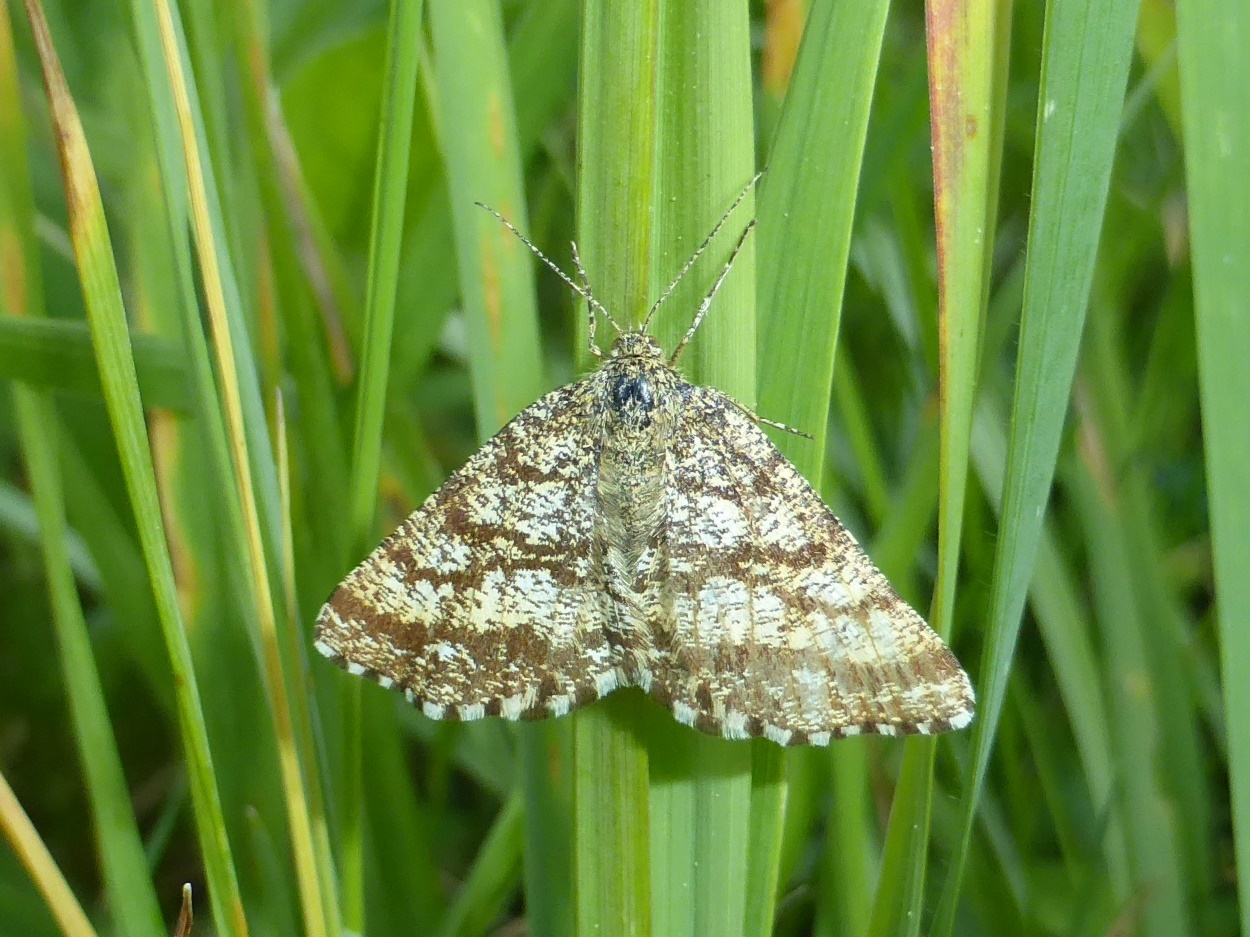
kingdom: Animalia
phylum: Arthropoda
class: Insecta
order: Lepidoptera
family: Geometridae
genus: Ematurga
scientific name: Ematurga atomaria
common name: Common heath
